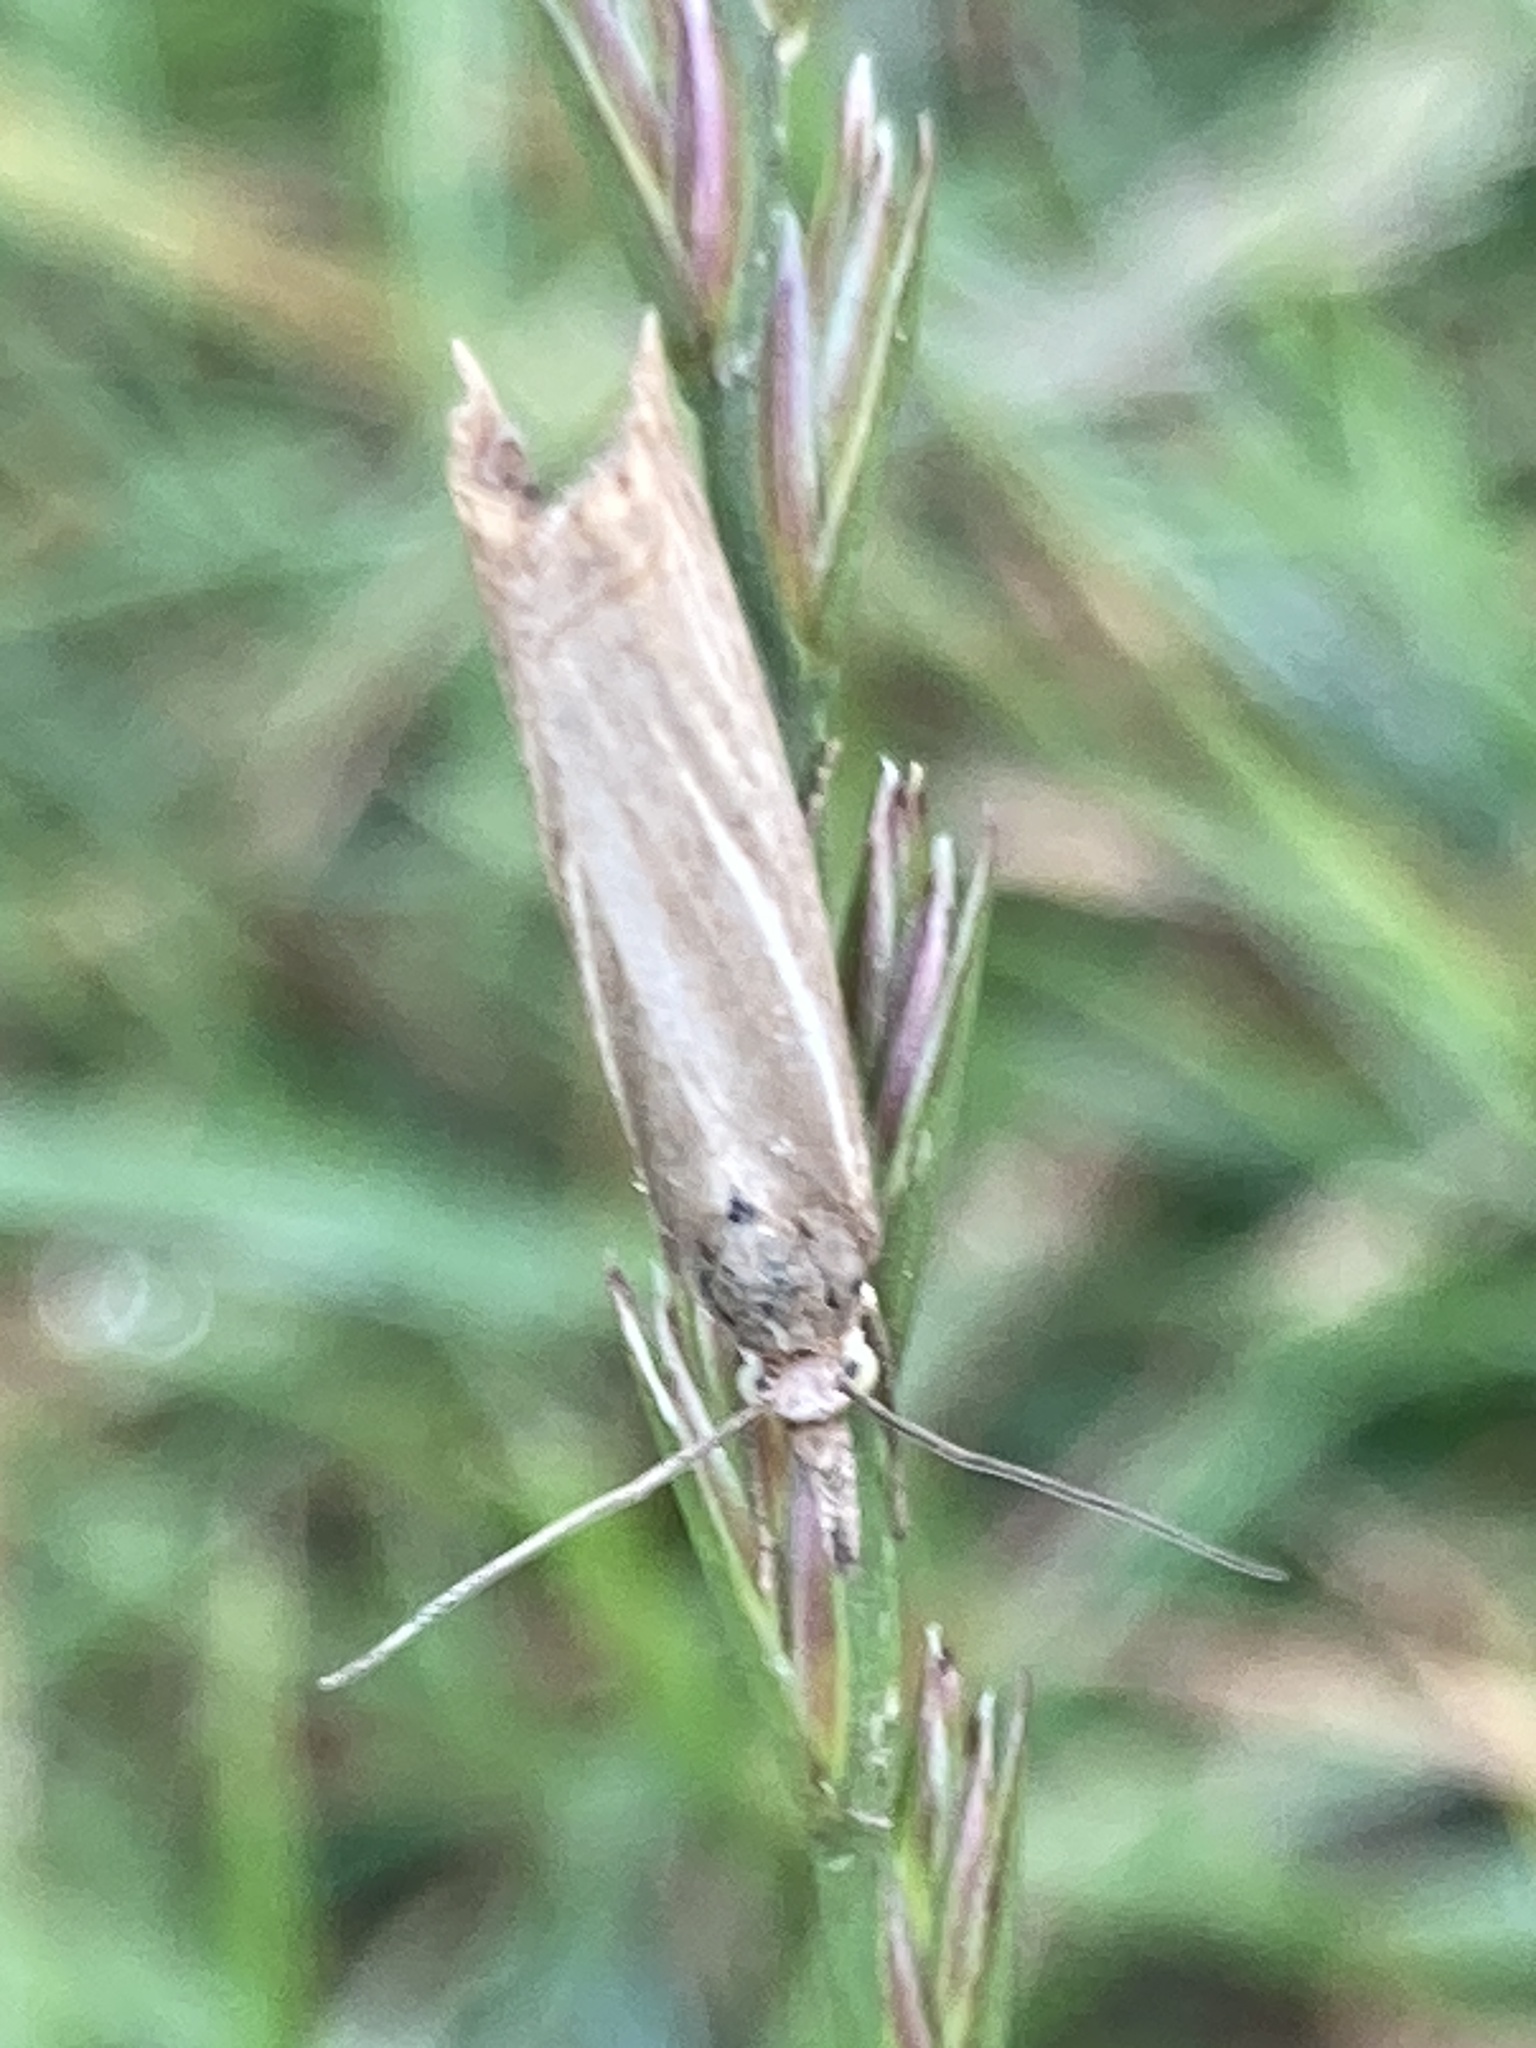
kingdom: Animalia
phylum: Arthropoda
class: Insecta
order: Lepidoptera
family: Crambidae
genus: Chrysoteuchia
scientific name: Chrysoteuchia culmella
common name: Garden grass-veneer
